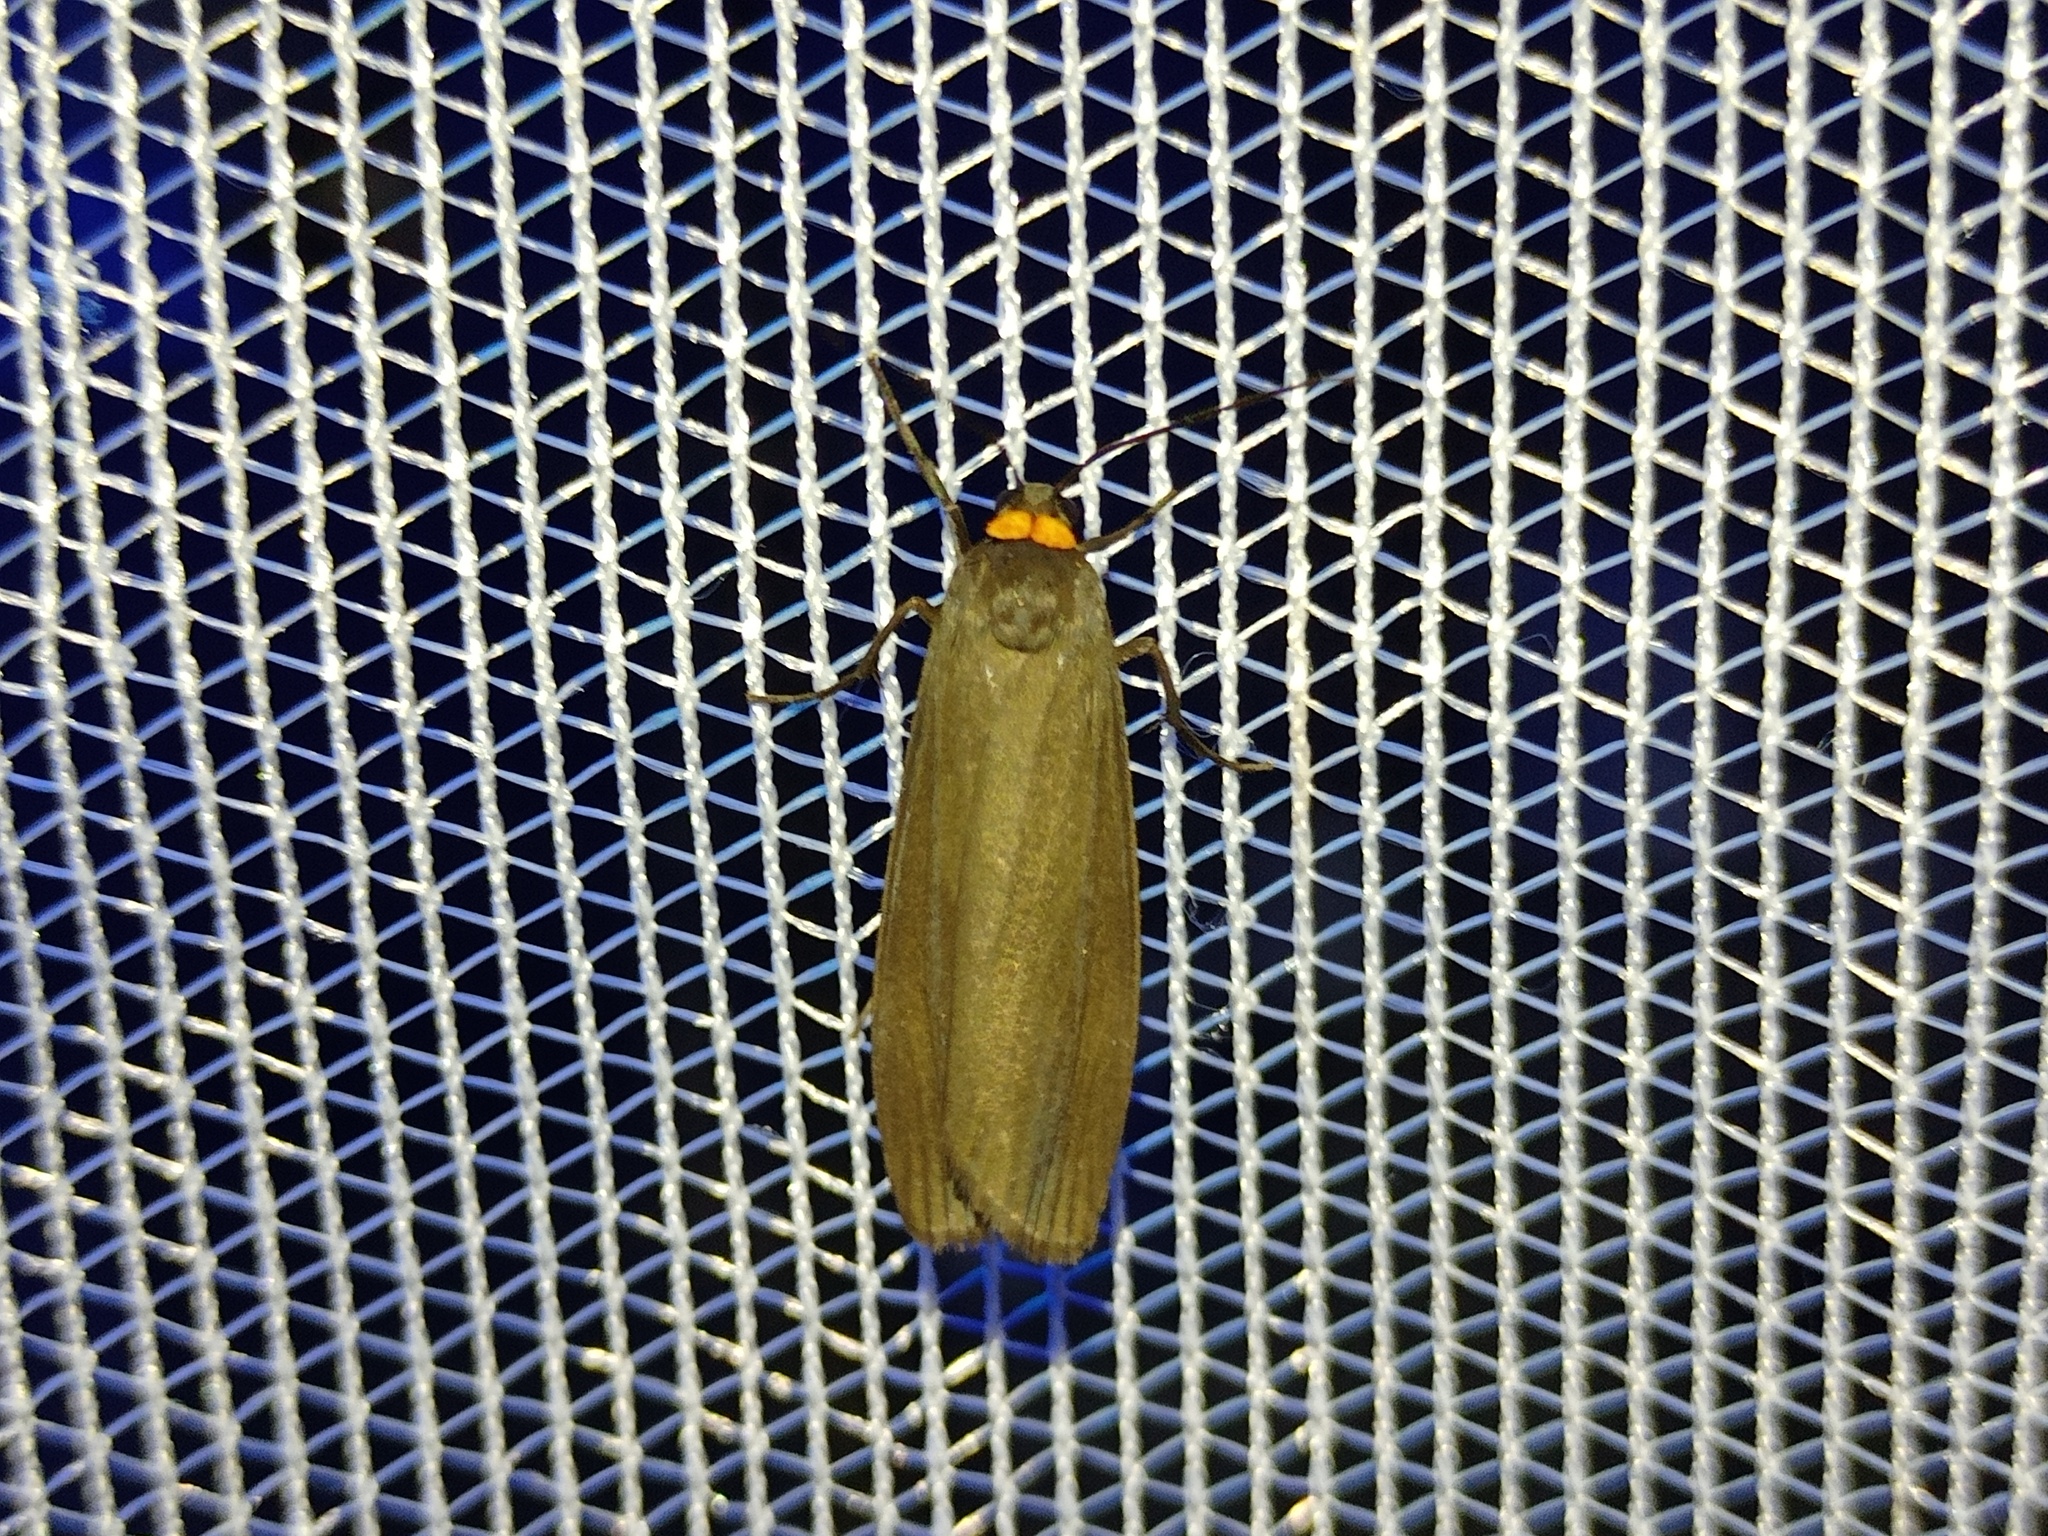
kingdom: Animalia
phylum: Arthropoda
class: Insecta
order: Lepidoptera
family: Erebidae
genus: Atolmis
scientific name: Atolmis rubricollis
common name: Red-necked footman
